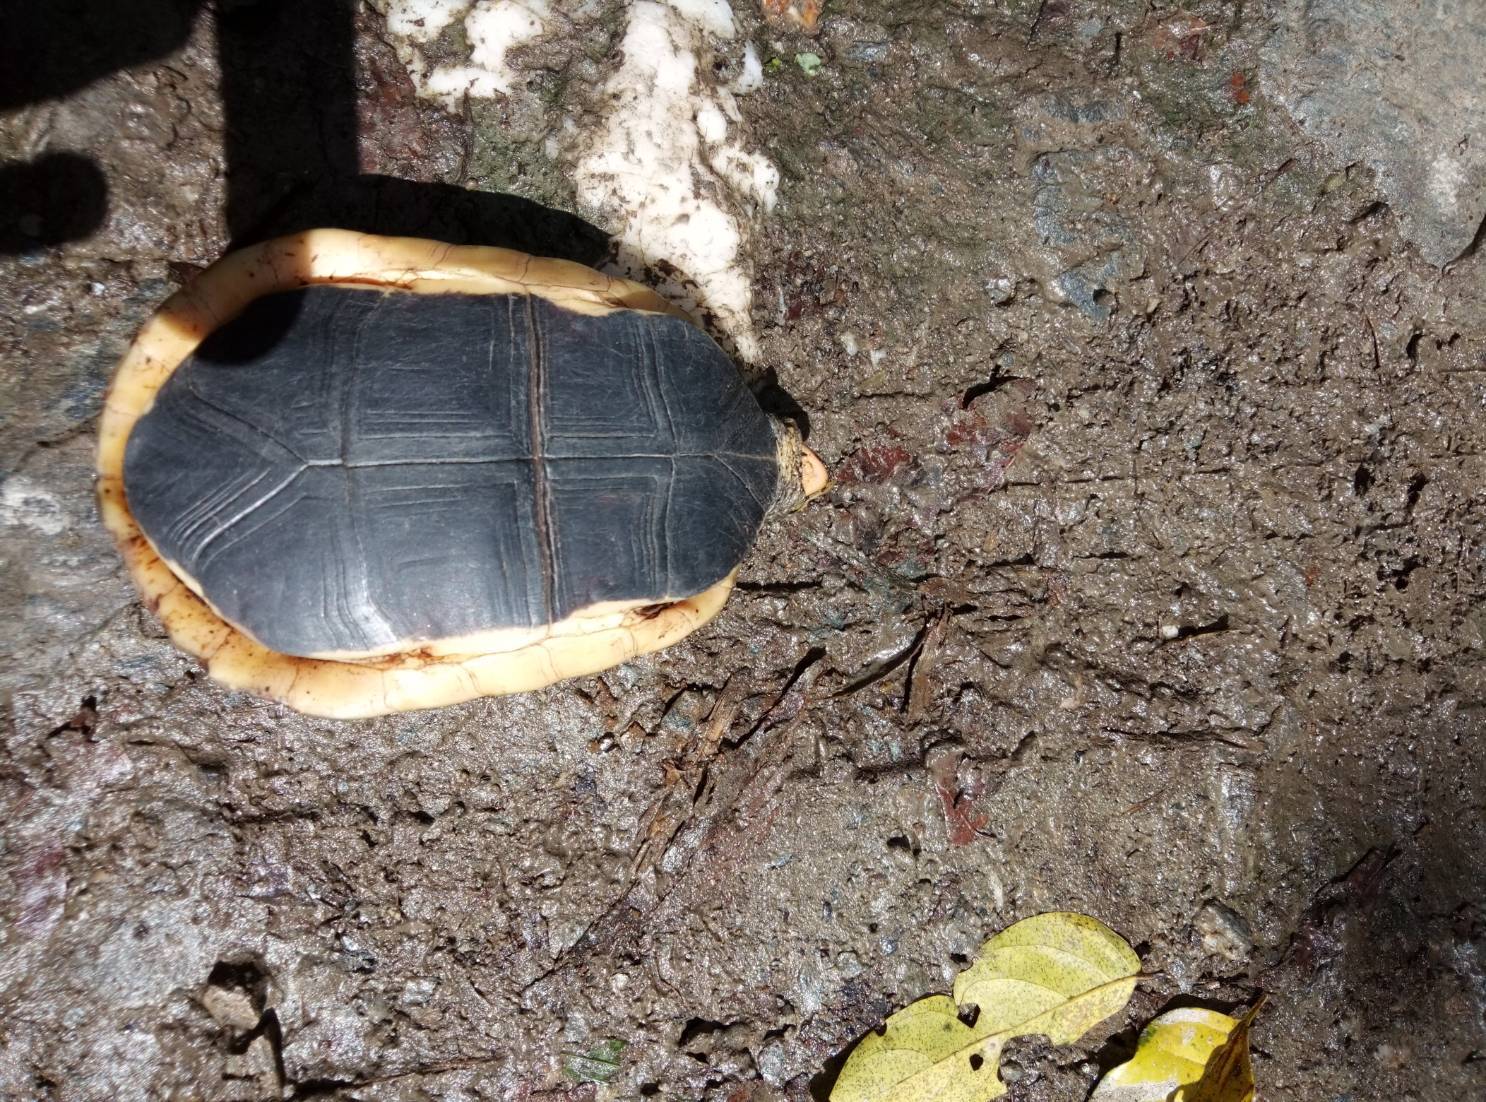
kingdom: Animalia
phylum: Chordata
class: Testudines
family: Geoemydidae
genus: Cuora
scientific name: Cuora flavomarginata
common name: Yellow-margined box turtle
